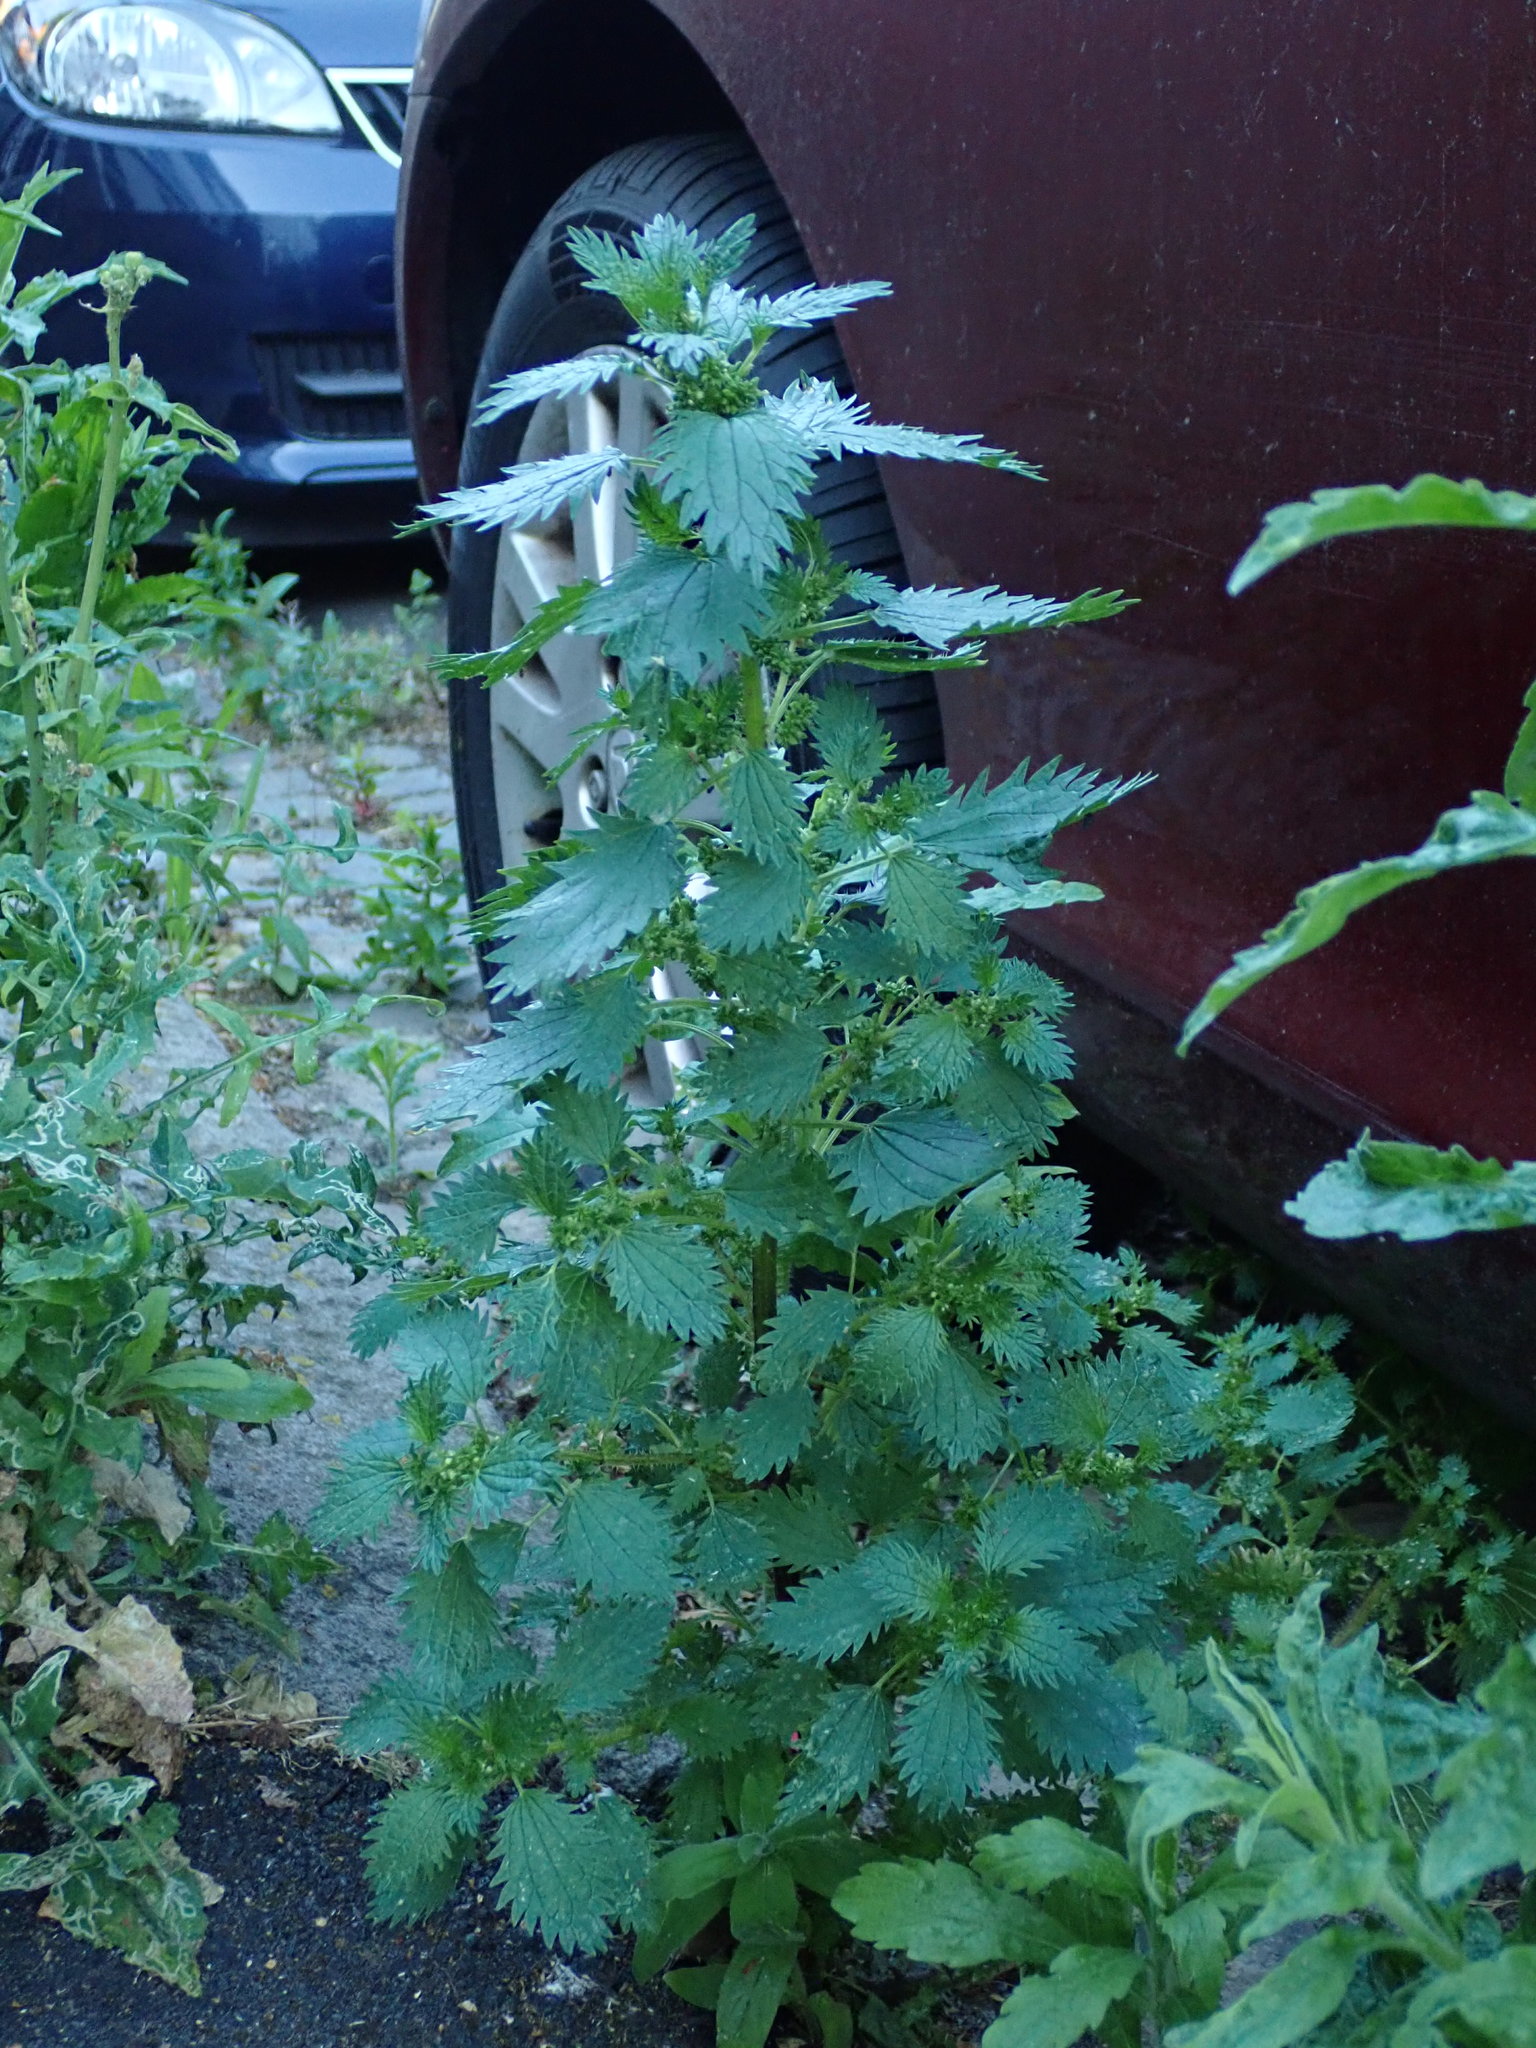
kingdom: Plantae
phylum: Tracheophyta
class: Magnoliopsida
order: Rosales
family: Urticaceae
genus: Urtica
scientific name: Urtica urens
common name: Dwarf nettle
